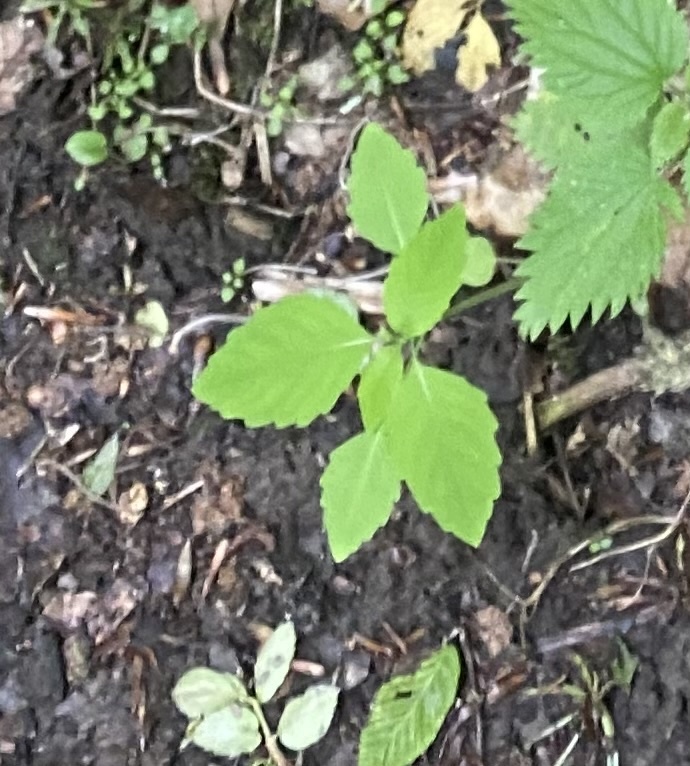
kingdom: Plantae
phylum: Tracheophyta
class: Magnoliopsida
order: Ericales
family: Balsaminaceae
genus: Impatiens
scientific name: Impatiens noli-tangere
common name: Touch-me-not balsam
